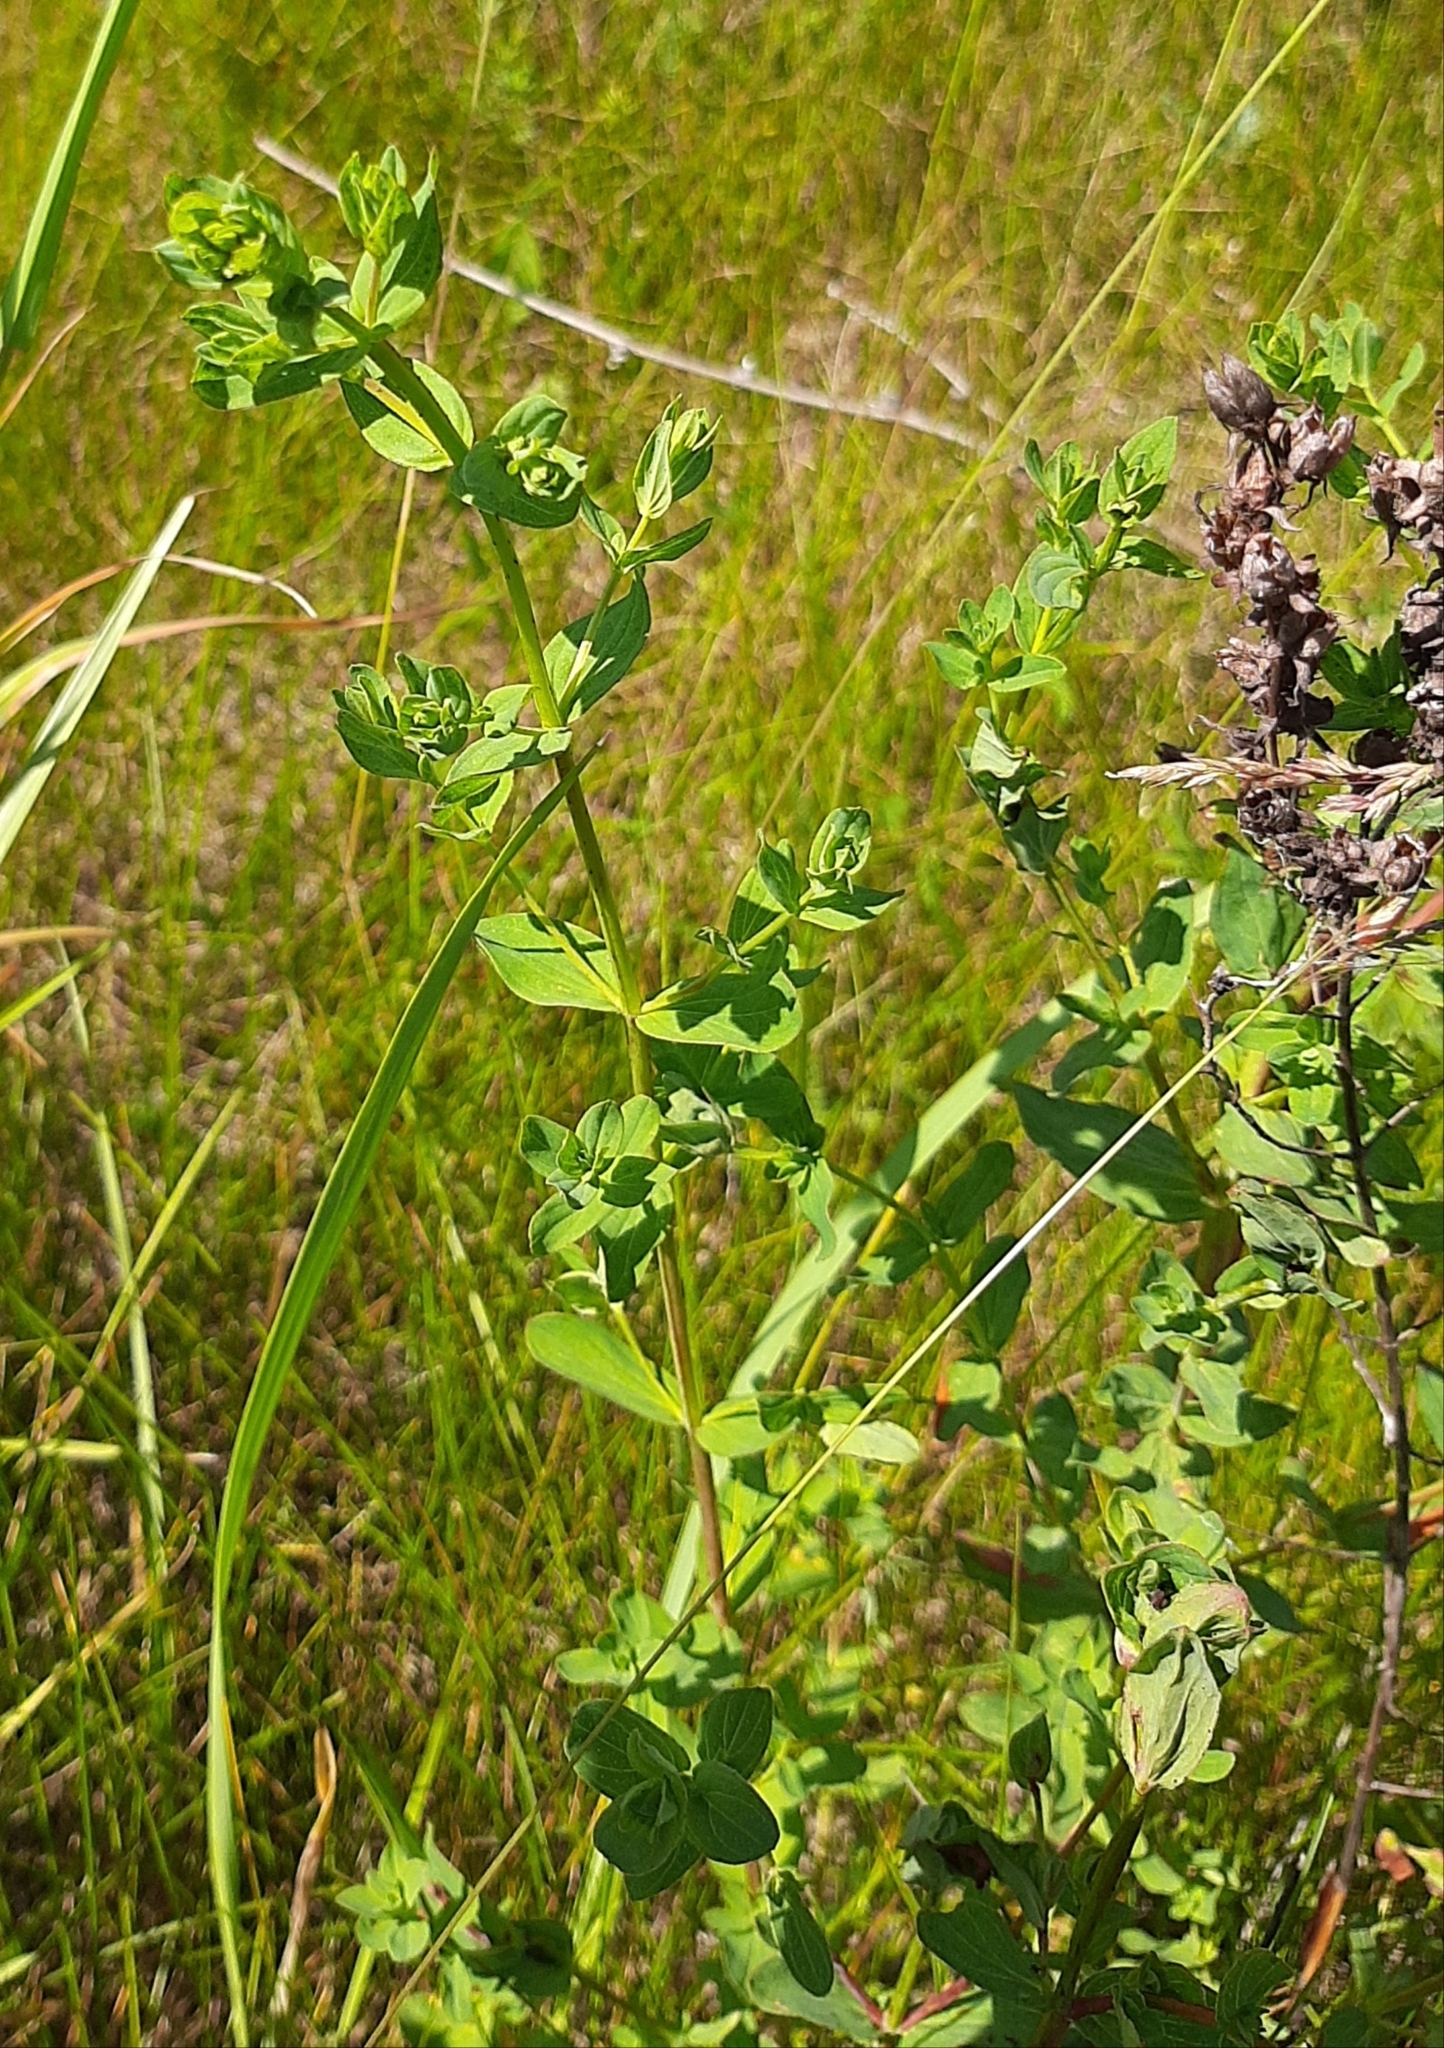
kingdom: Plantae
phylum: Tracheophyta
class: Magnoliopsida
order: Malpighiales
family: Hypericaceae
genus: Hypericum
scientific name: Hypericum perforatum
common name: Common st. johnswort
